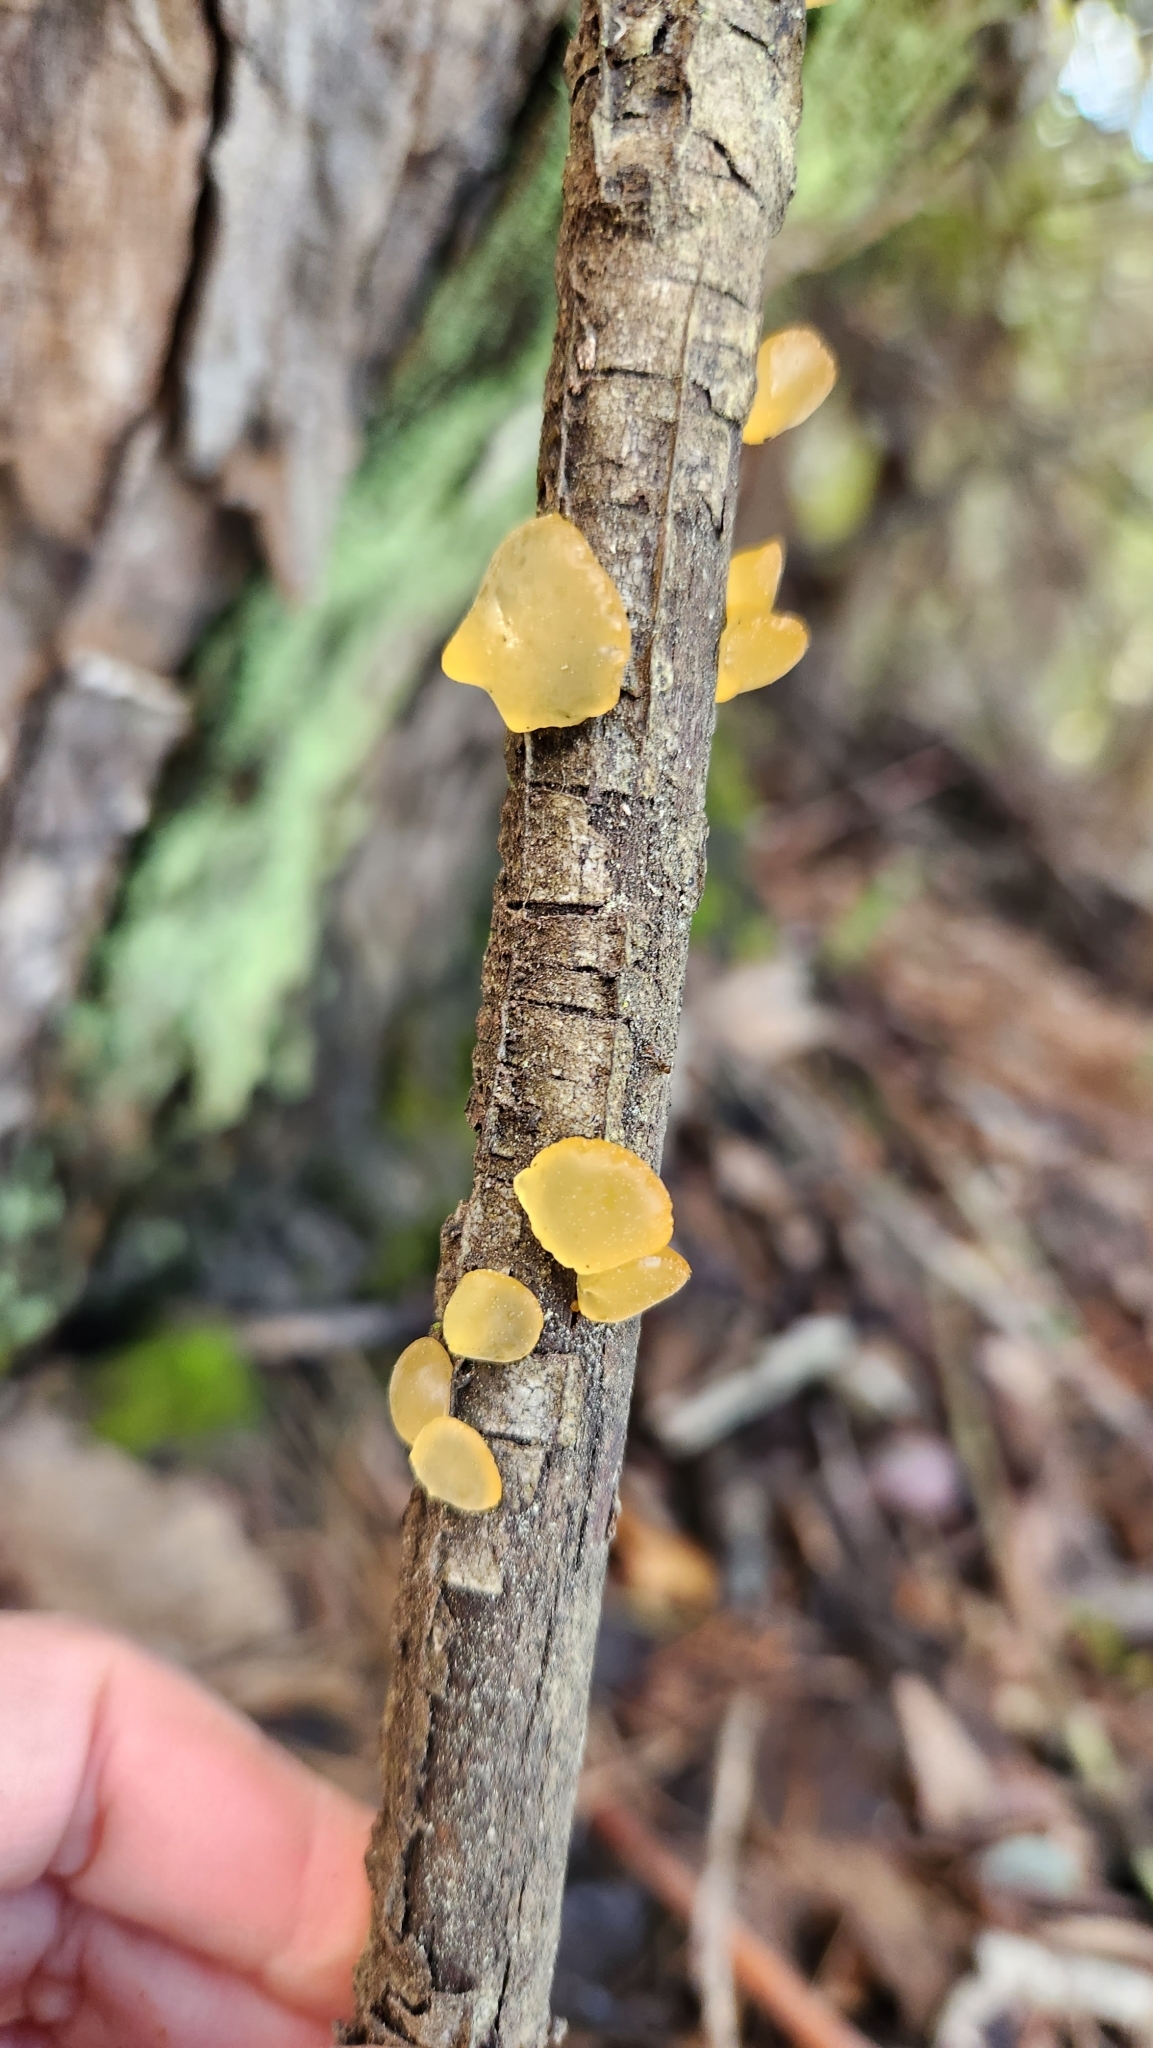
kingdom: Fungi
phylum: Basidiomycota
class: Dacrymycetes
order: Dacrymycetales
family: Dacrymycetaceae
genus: Guepiniopsis
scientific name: Guepiniopsis alpina
